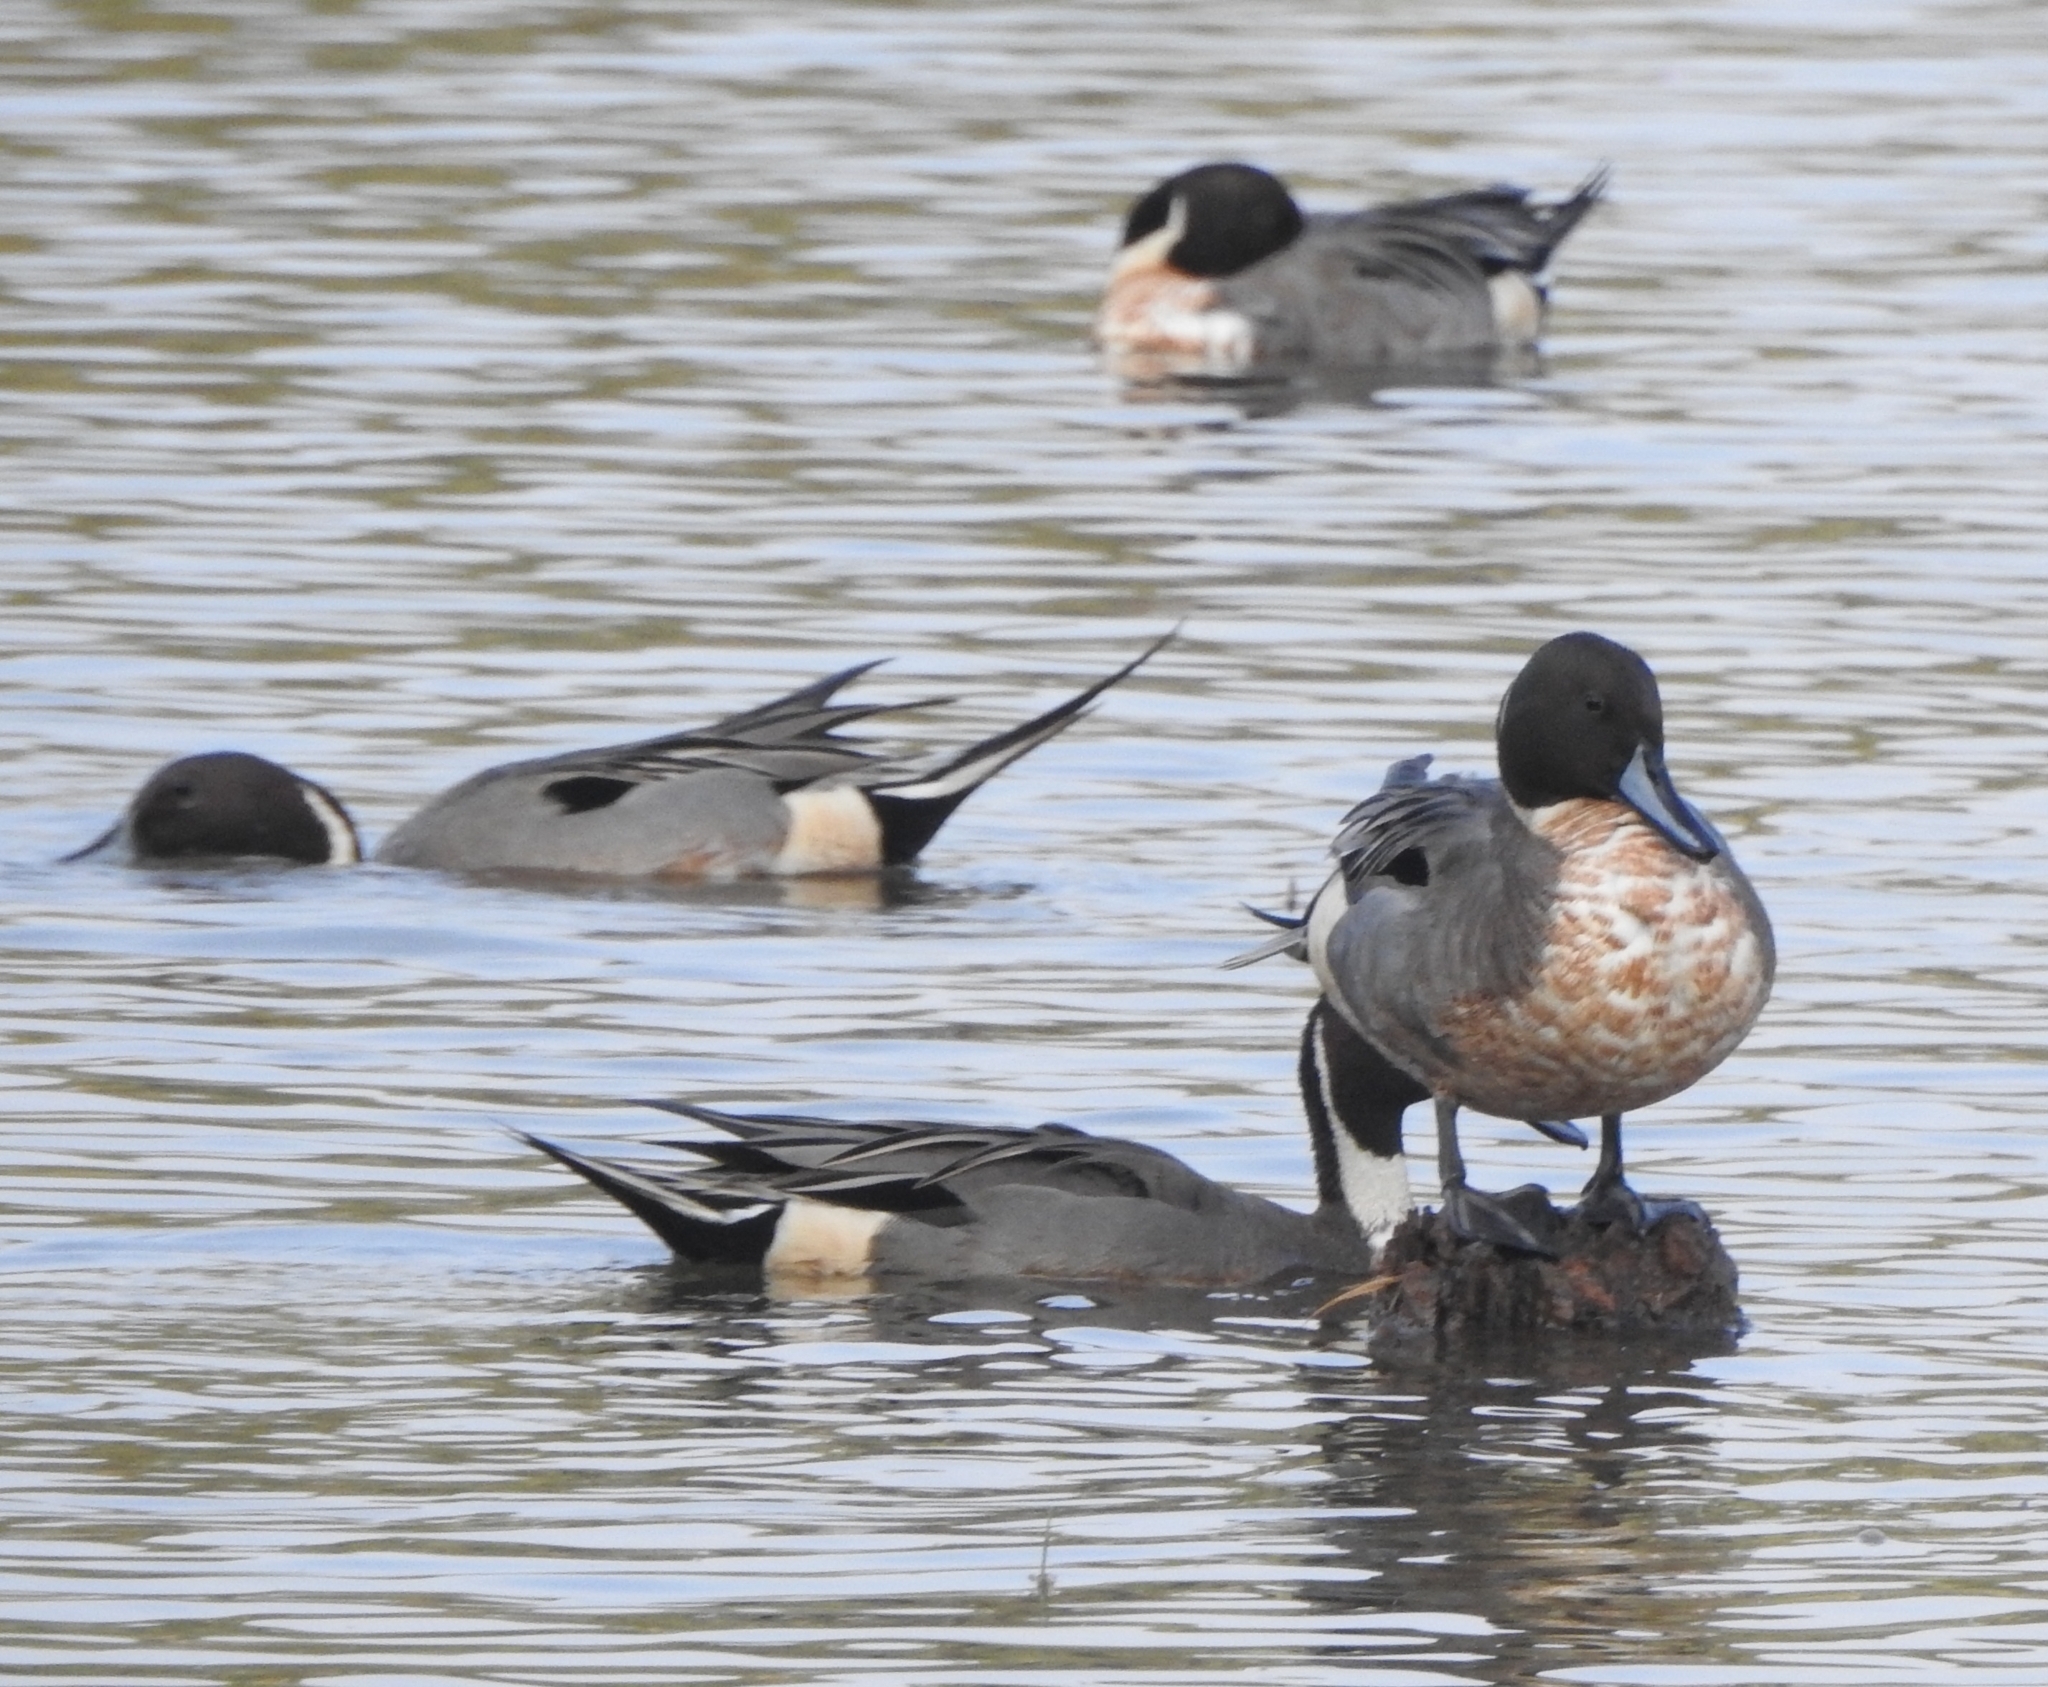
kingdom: Animalia
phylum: Chordata
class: Aves
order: Anseriformes
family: Anatidae
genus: Anas
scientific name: Anas acuta
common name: Northern pintail
